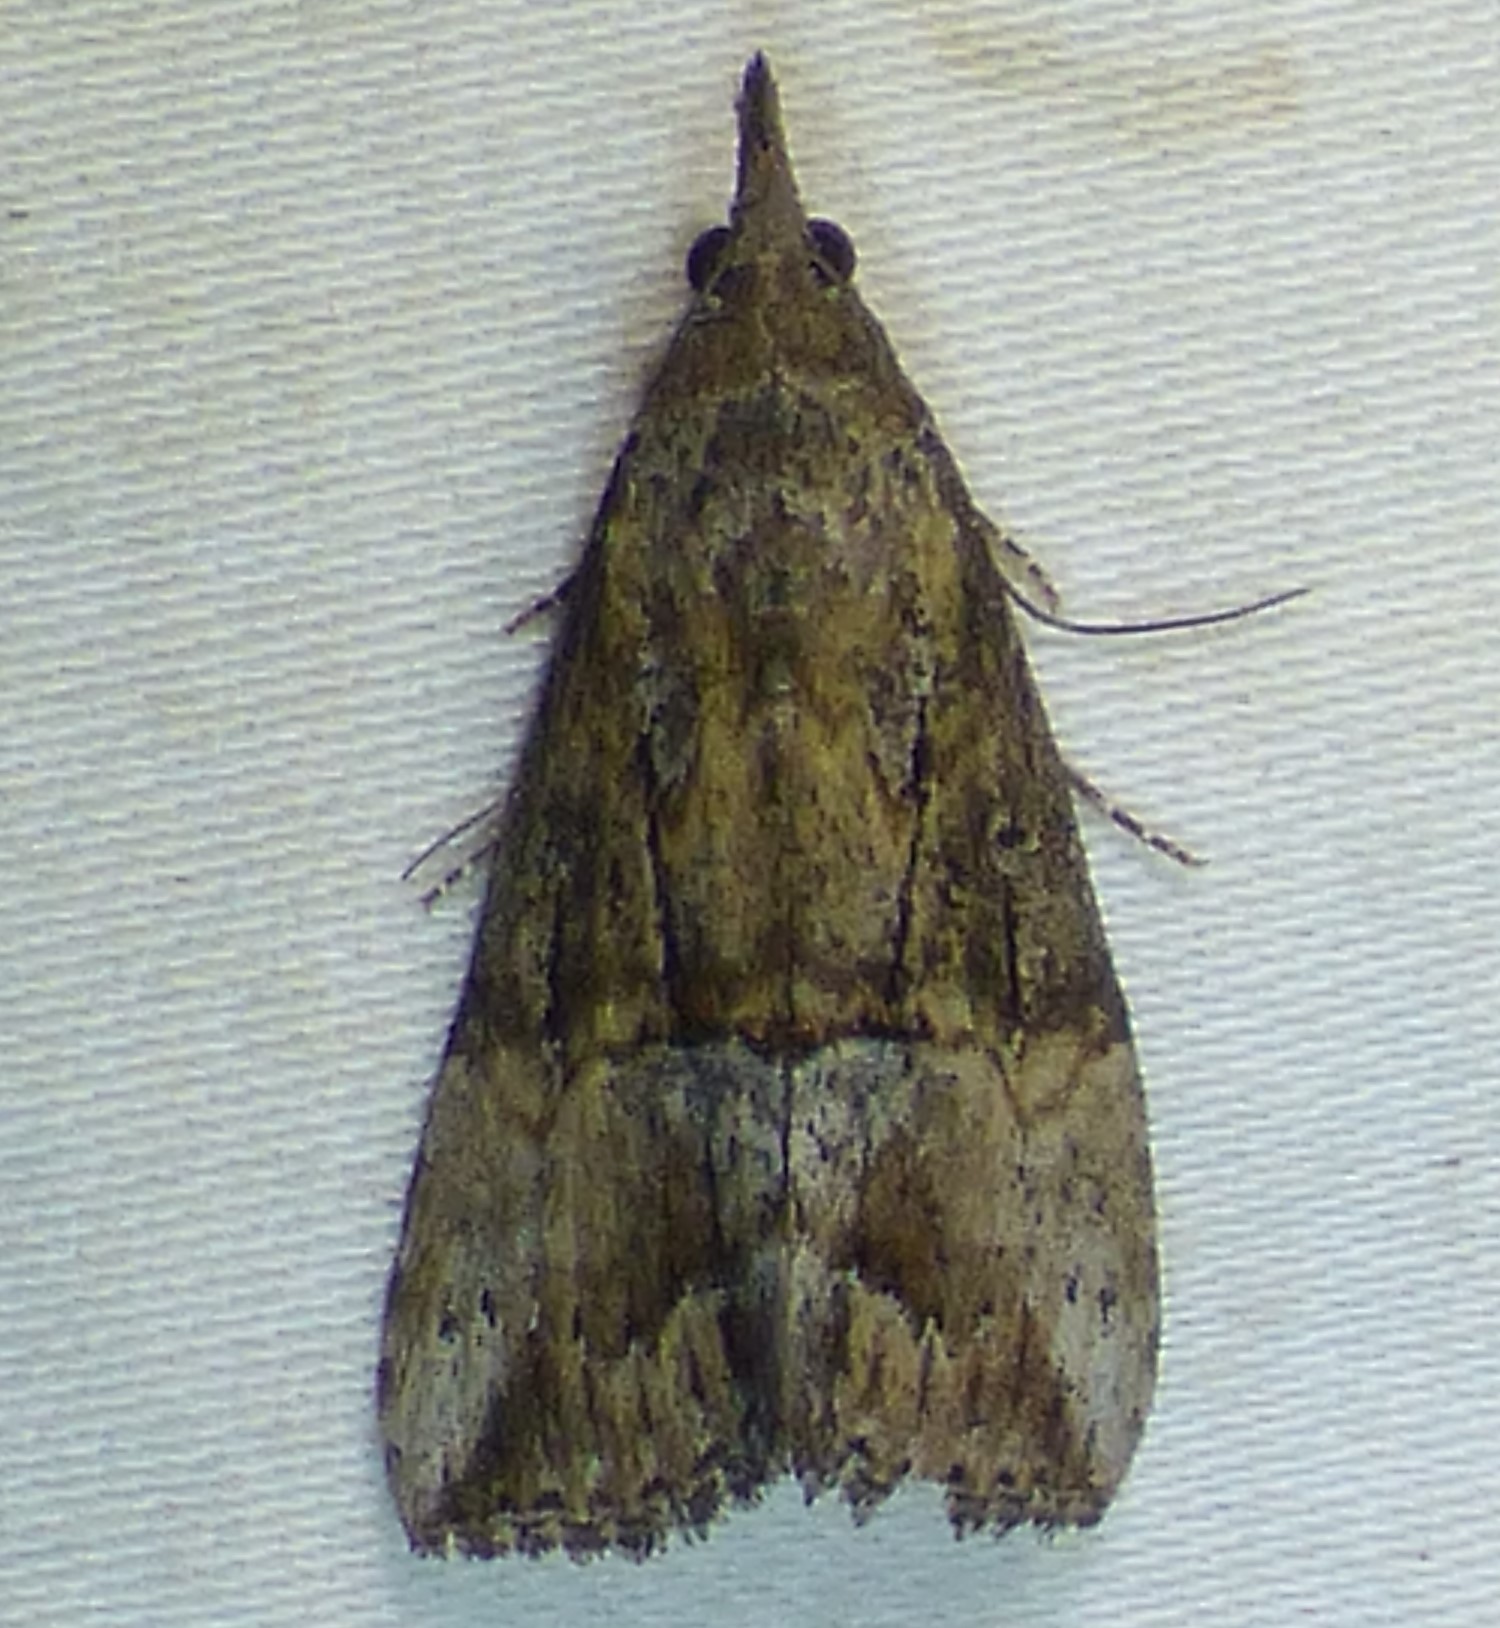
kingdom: Animalia
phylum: Arthropoda
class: Insecta
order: Lepidoptera
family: Erebidae
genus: Hypena
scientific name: Hypena scabra
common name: Green cloverworm
